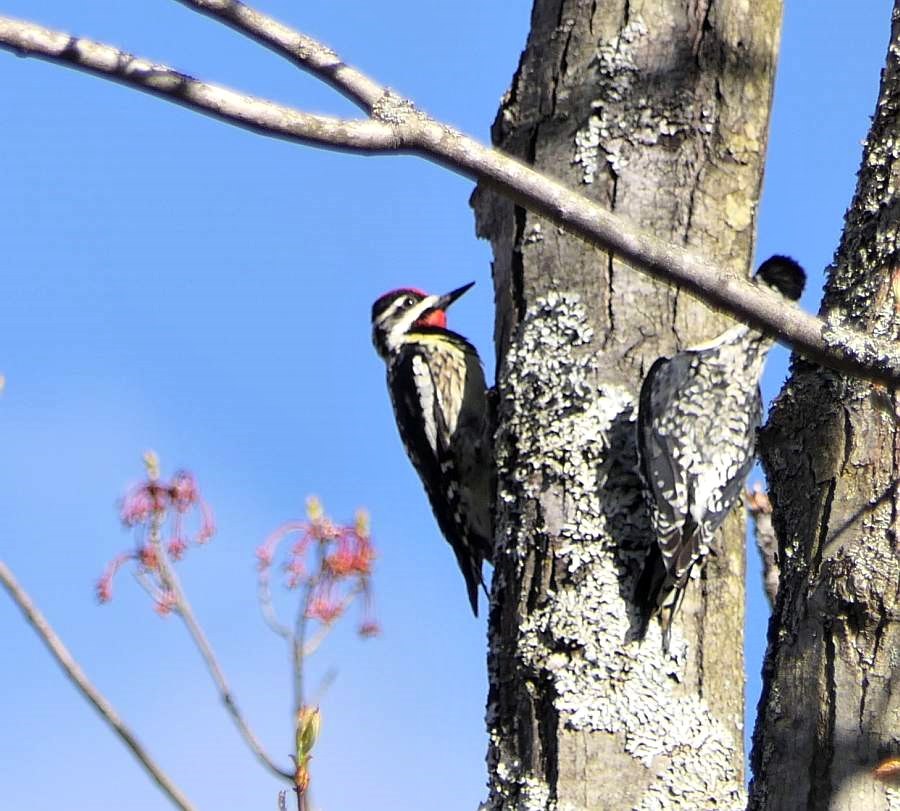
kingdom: Animalia
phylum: Chordata
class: Aves
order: Piciformes
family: Picidae
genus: Sphyrapicus
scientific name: Sphyrapicus varius
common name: Yellow-bellied sapsucker
